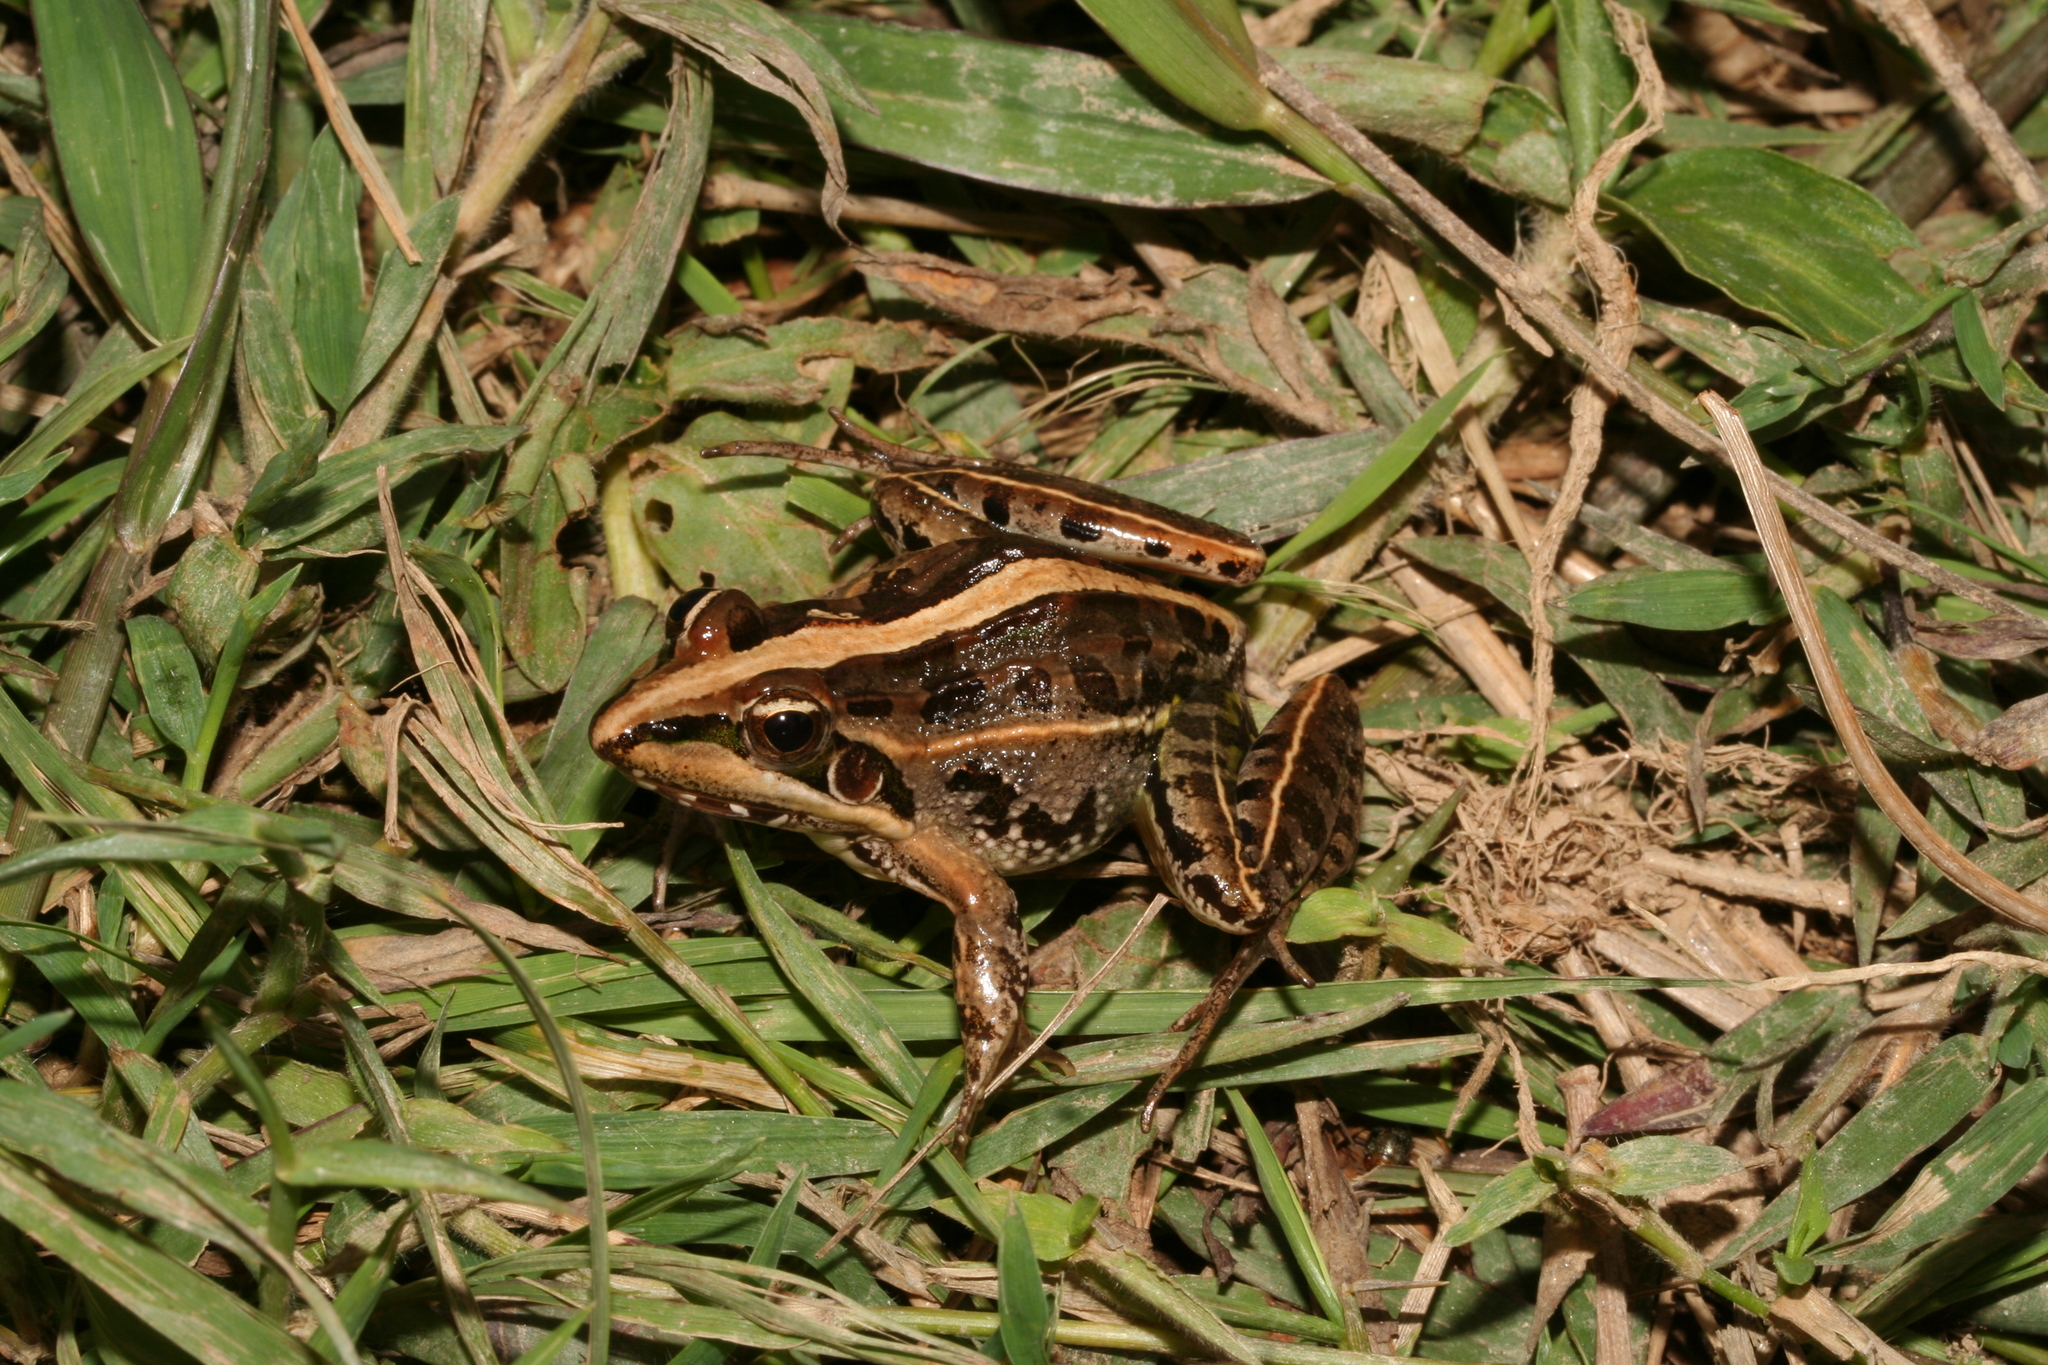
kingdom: Animalia
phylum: Chordata
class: Amphibia
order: Anura
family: Ptychadenidae
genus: Ptychadena
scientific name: Ptychadena mascareniensis
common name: Mascarene grass frog
